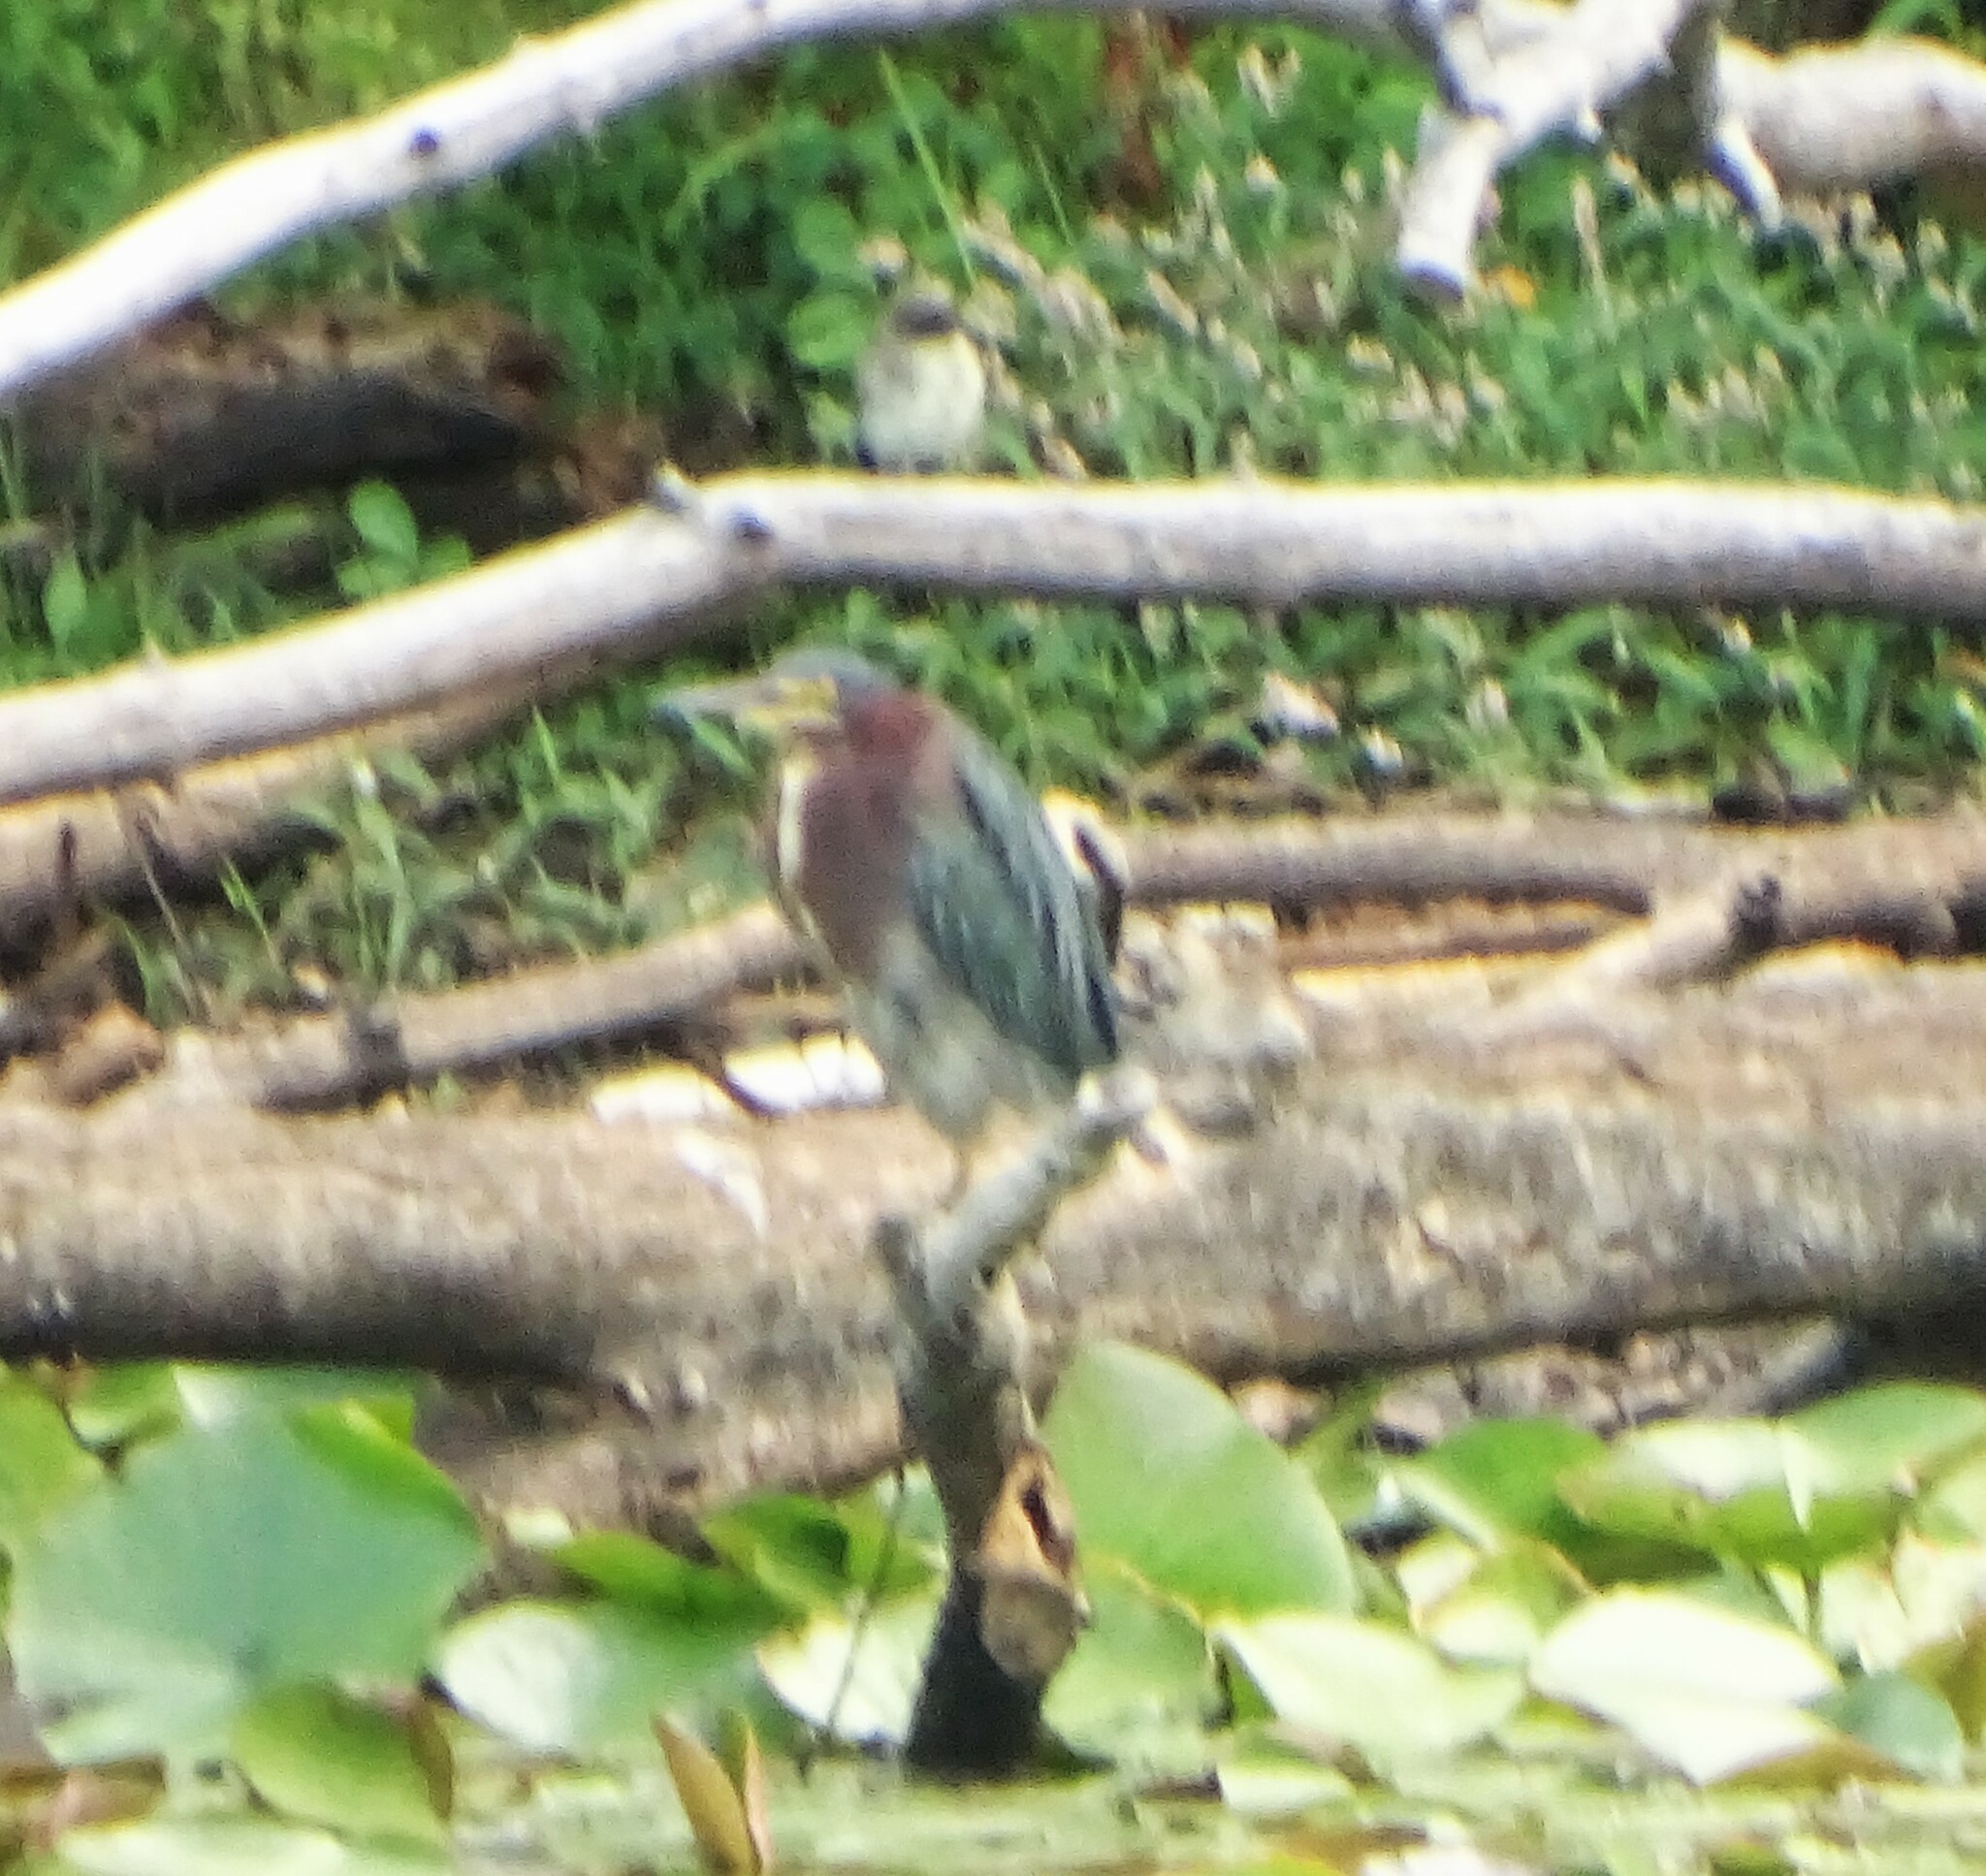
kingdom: Animalia
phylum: Chordata
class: Aves
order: Pelecaniformes
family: Ardeidae
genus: Butorides
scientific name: Butorides virescens
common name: Green heron
